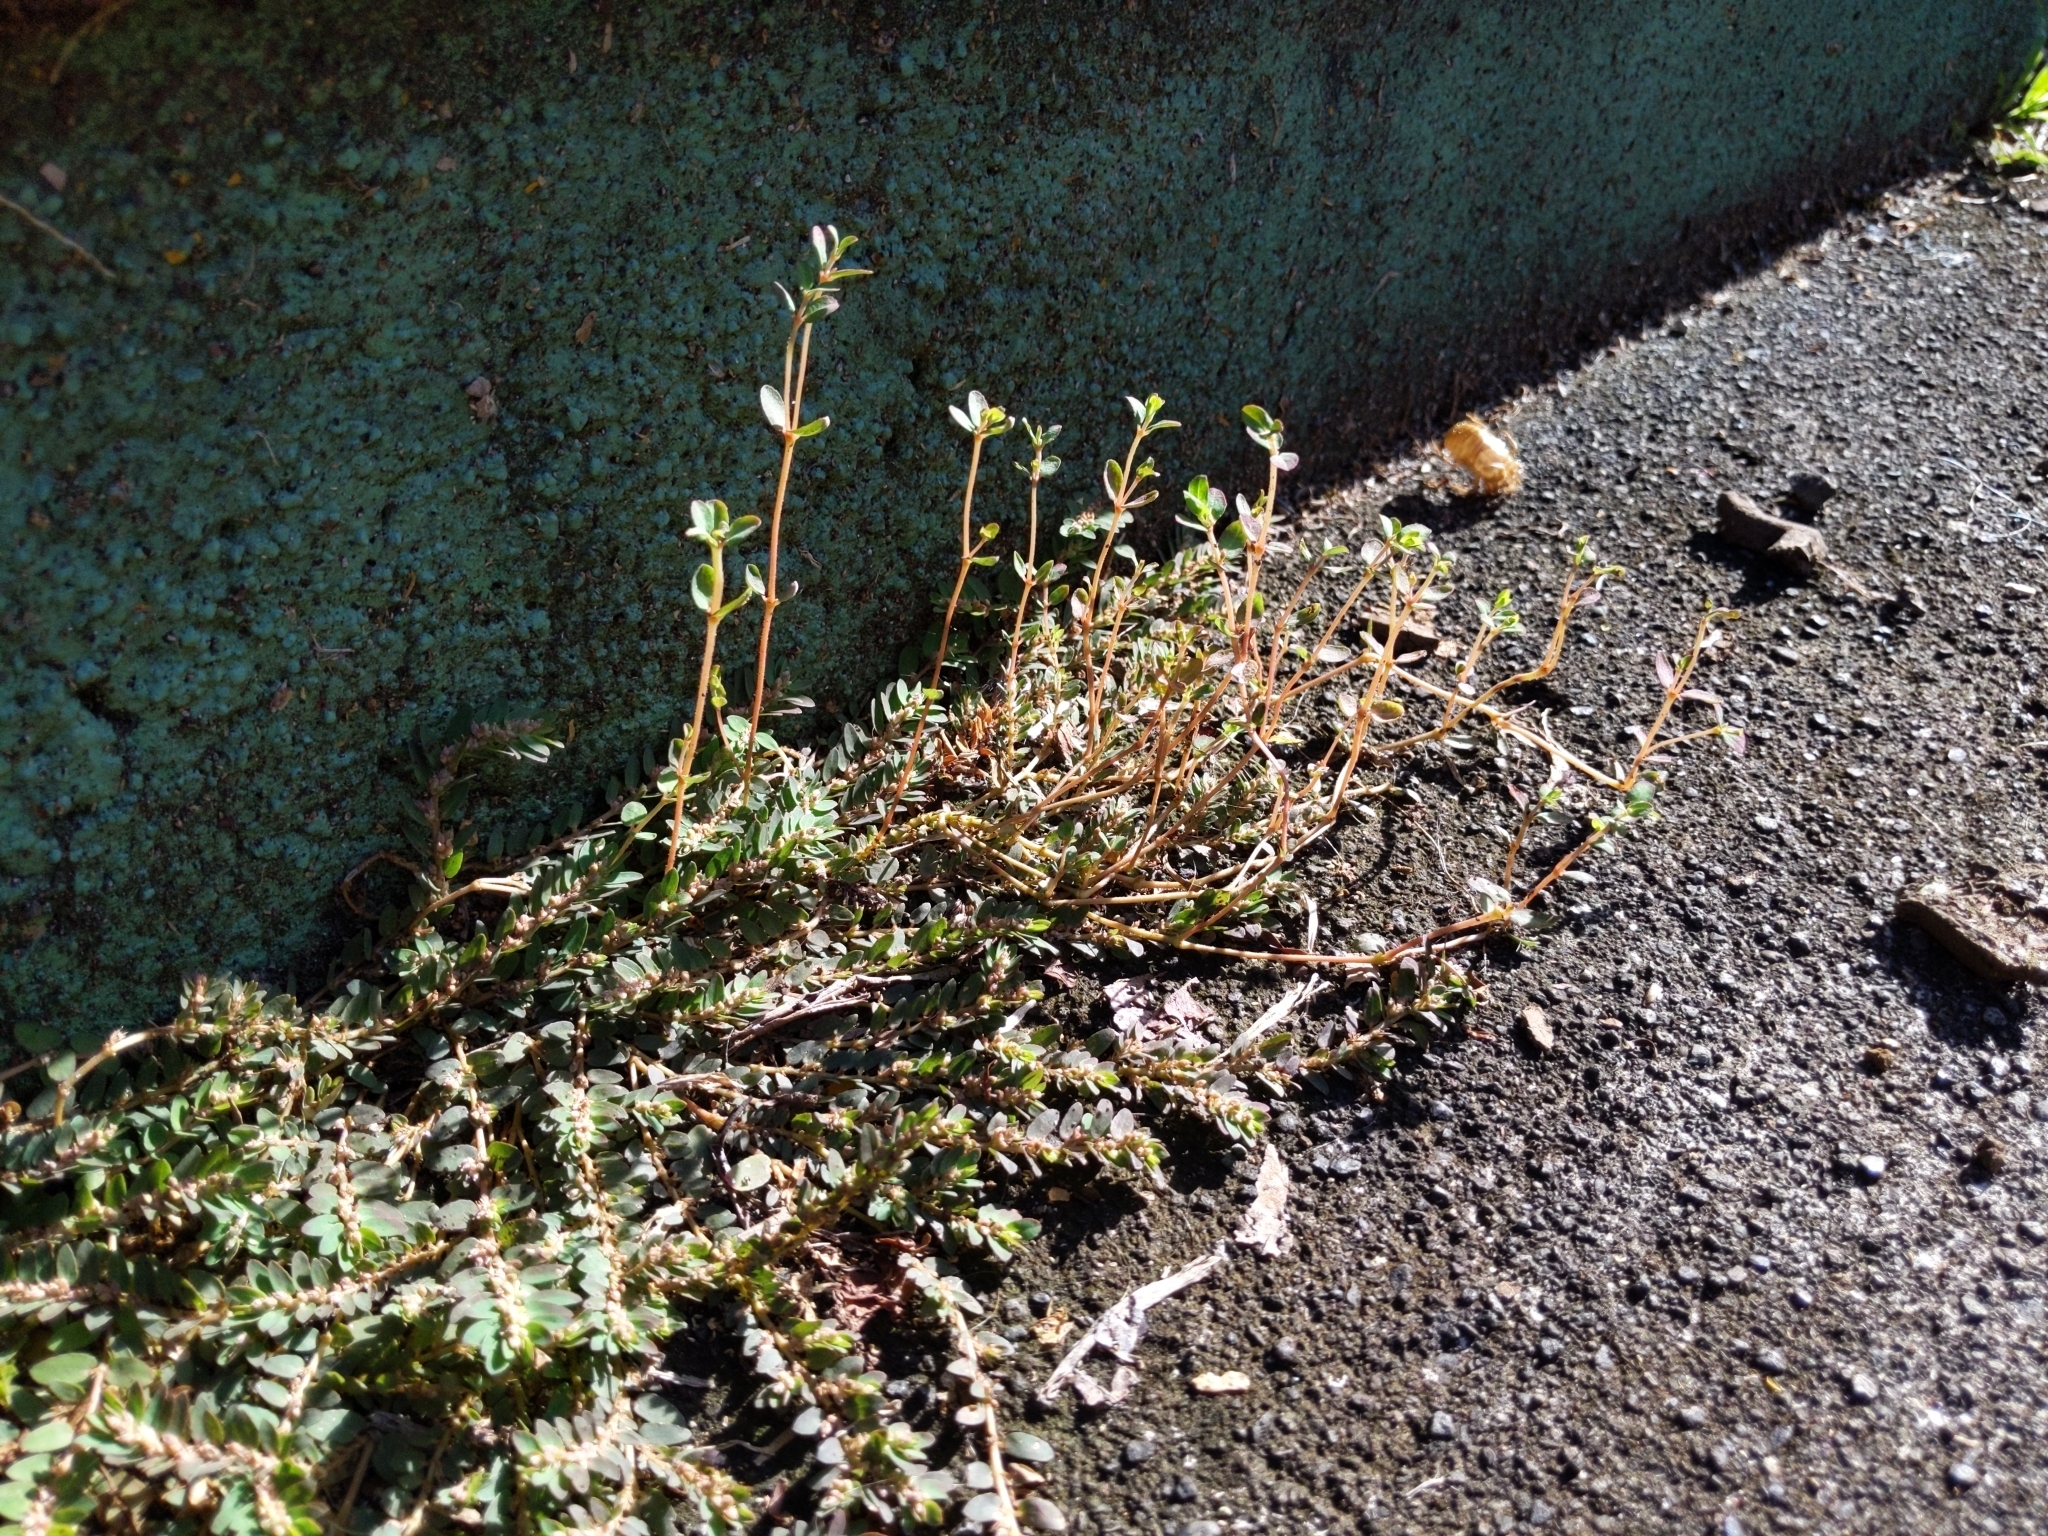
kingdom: Plantae
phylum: Tracheophyta
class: Magnoliopsida
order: Malpighiales
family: Euphorbiaceae
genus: Euphorbia
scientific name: Euphorbia thymifolia
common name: Gulf sandmat
